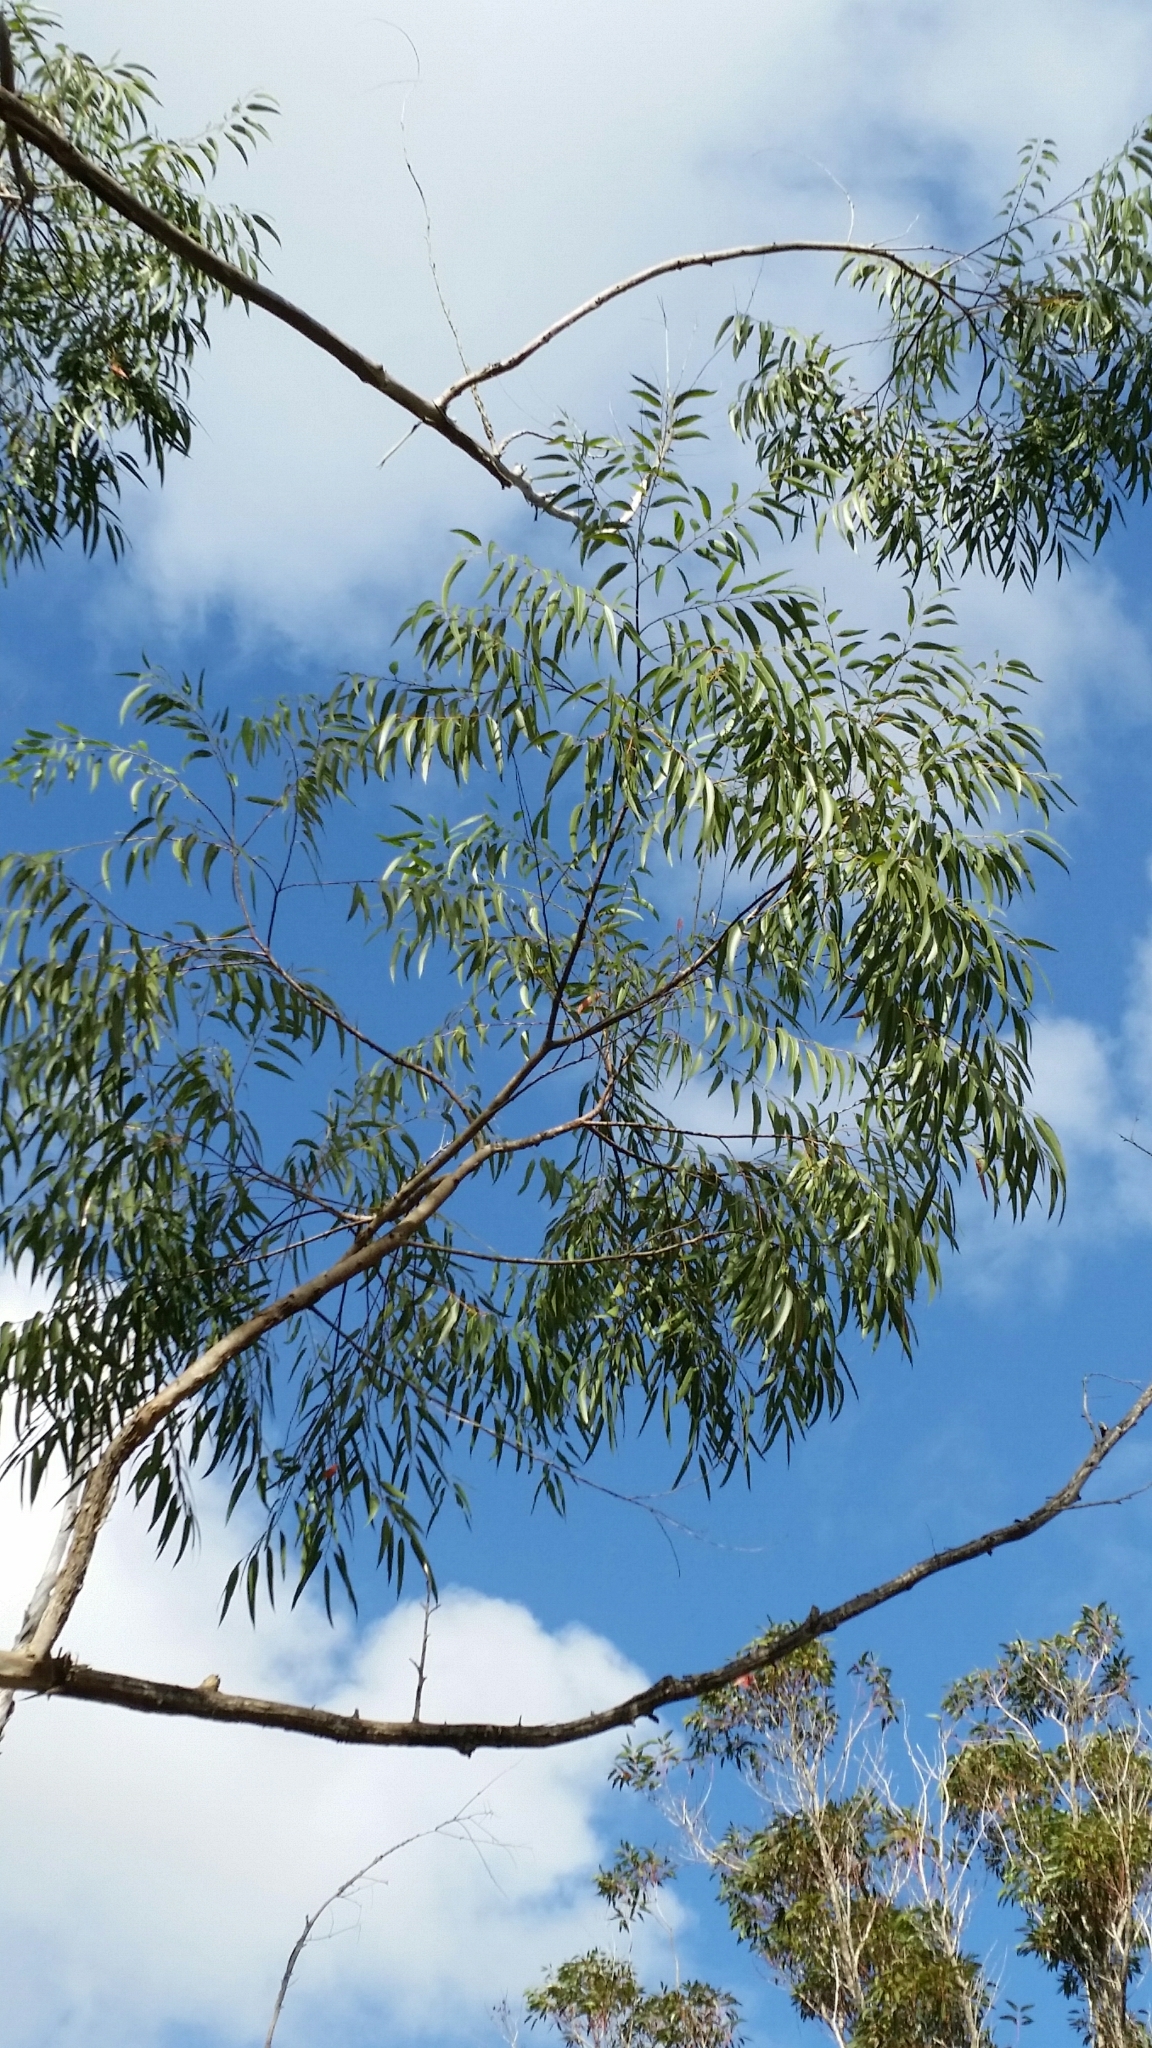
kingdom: Plantae
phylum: Tracheophyta
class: Magnoliopsida
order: Myrtales
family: Myrtaceae
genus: Eucalyptus
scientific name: Eucalyptus camaldulensis
